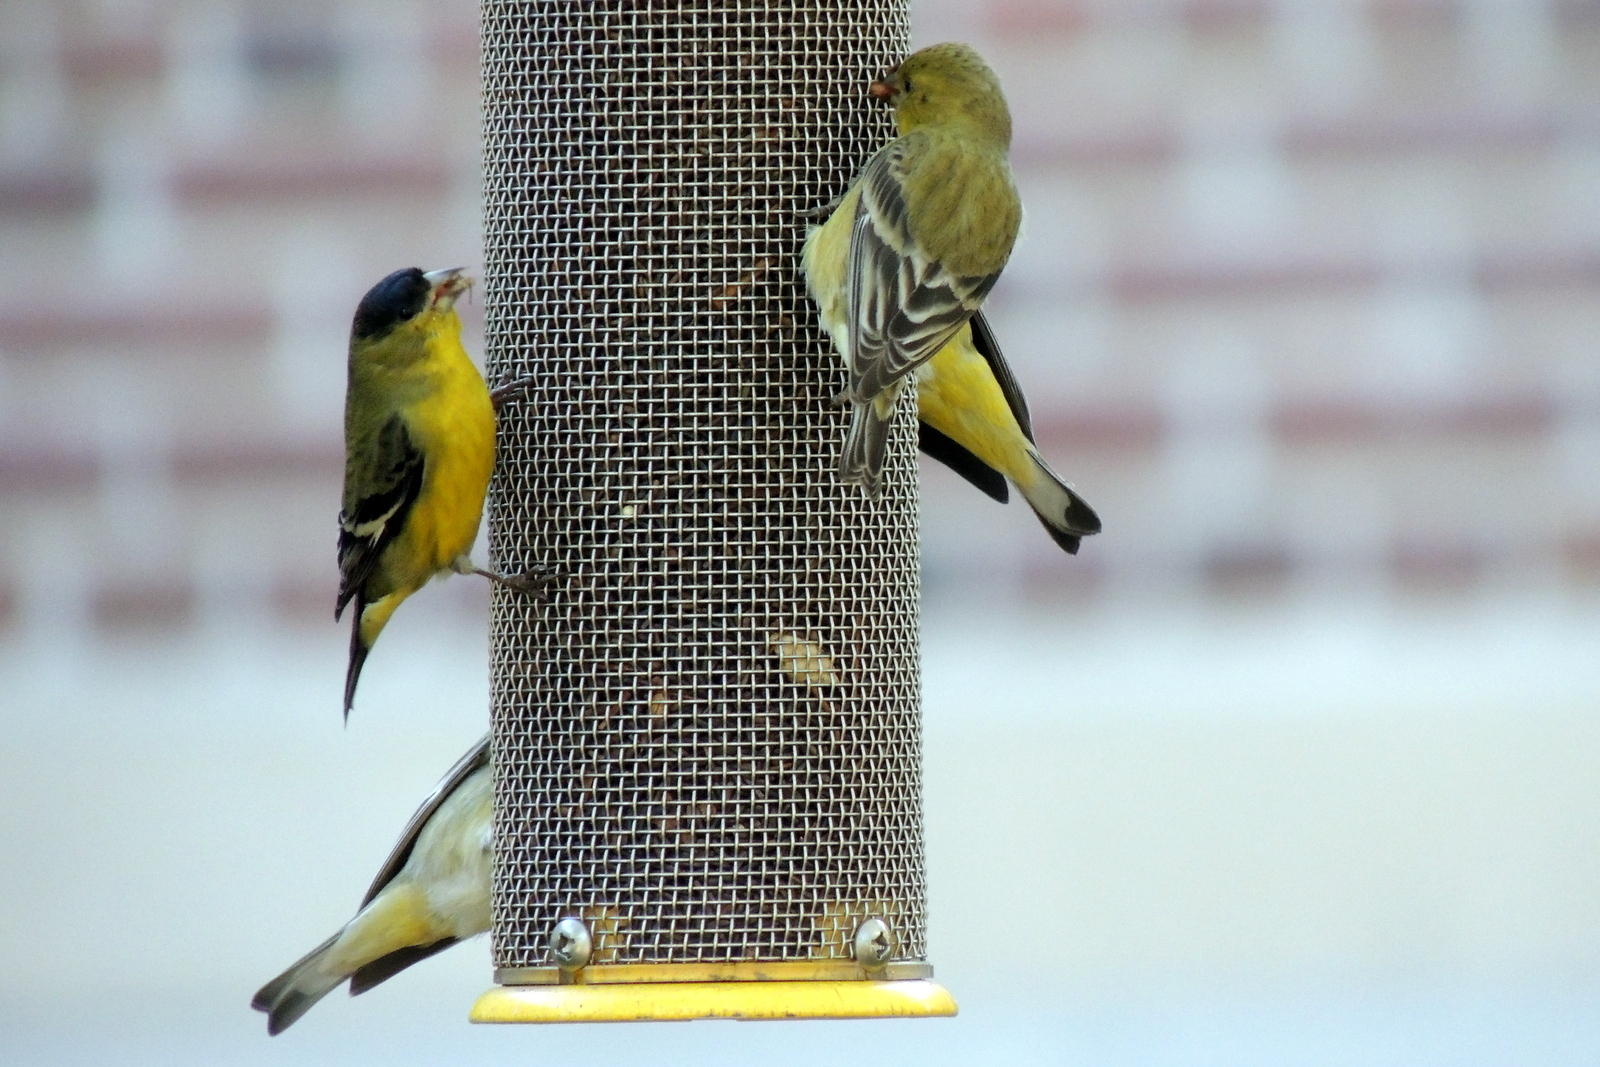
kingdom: Animalia
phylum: Chordata
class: Aves
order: Passeriformes
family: Fringillidae
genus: Spinus
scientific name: Spinus psaltria
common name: Lesser goldfinch
